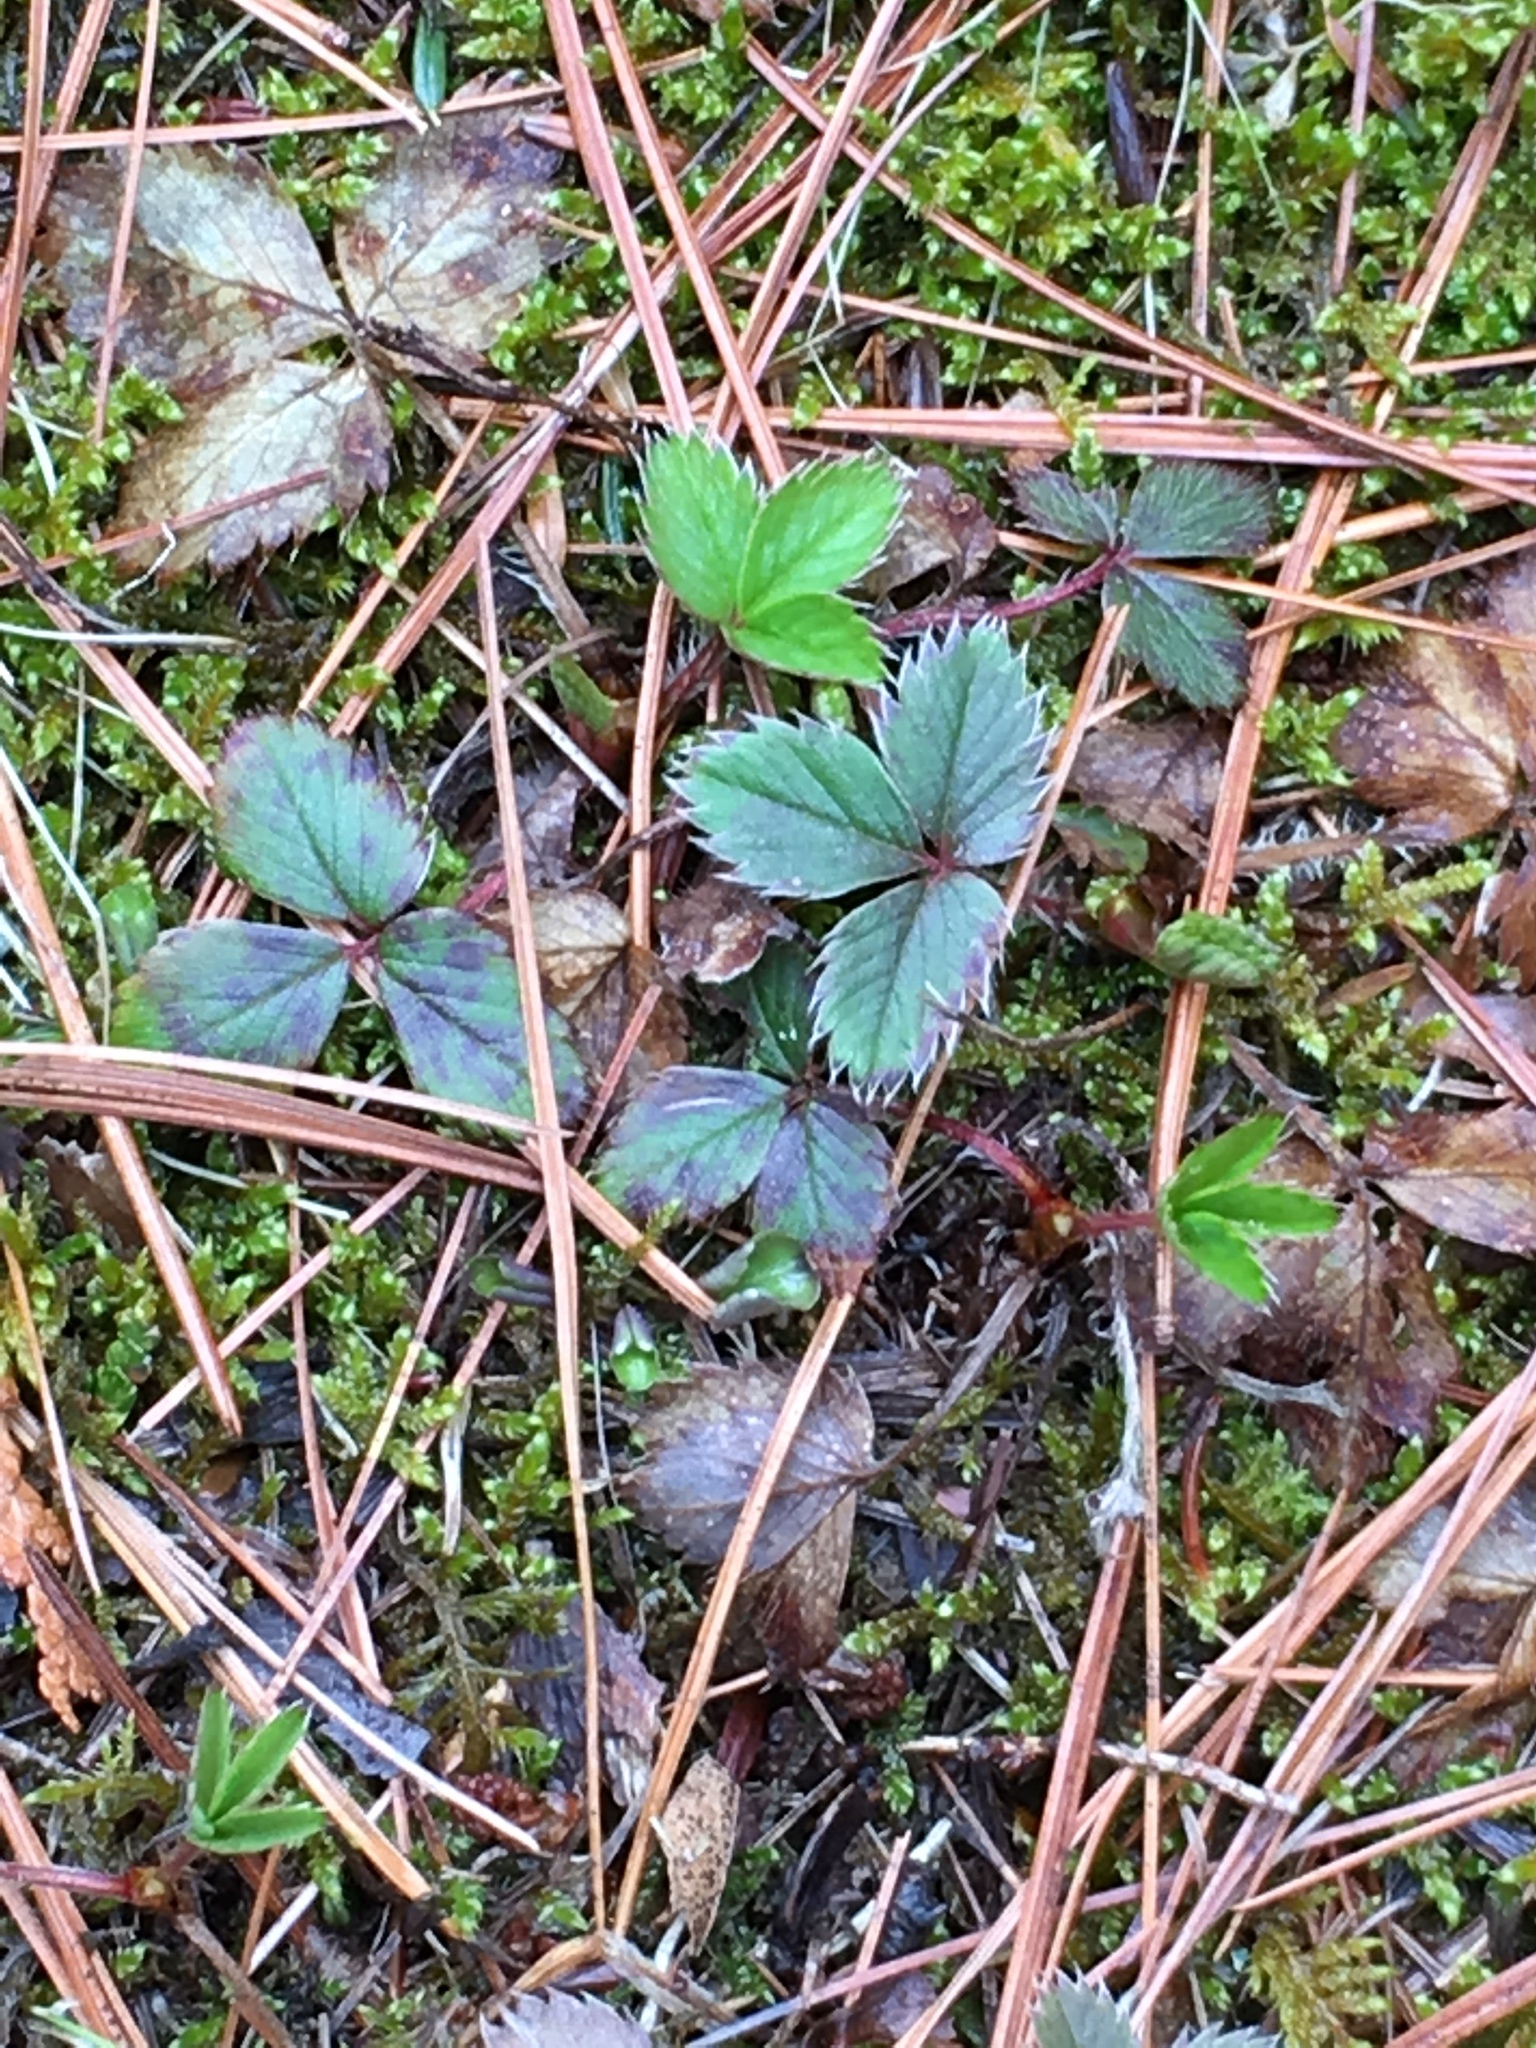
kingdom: Plantae
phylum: Tracheophyta
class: Magnoliopsida
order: Rosales
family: Rosaceae
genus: Fragaria
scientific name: Fragaria vesca
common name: Wild strawberry
